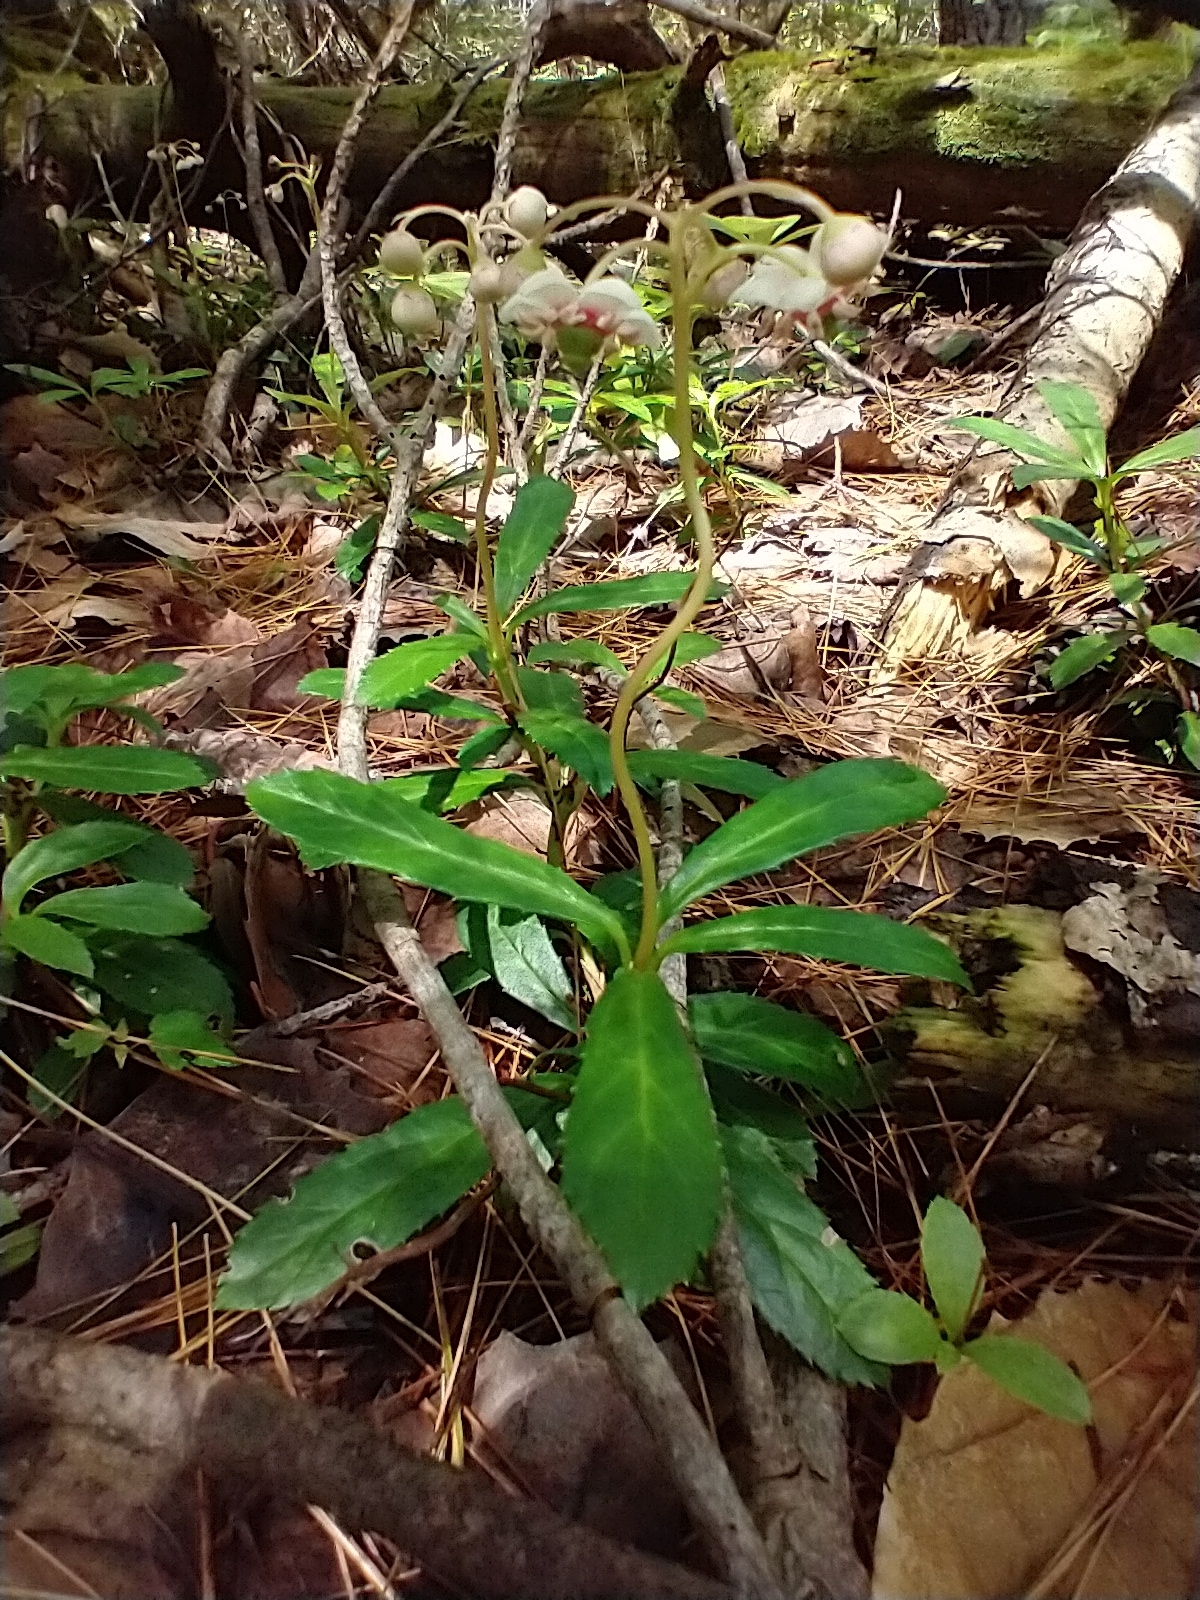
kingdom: Plantae
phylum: Tracheophyta
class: Magnoliopsida
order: Ericales
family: Ericaceae
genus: Chimaphila
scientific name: Chimaphila umbellata
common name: Pipsissewa
